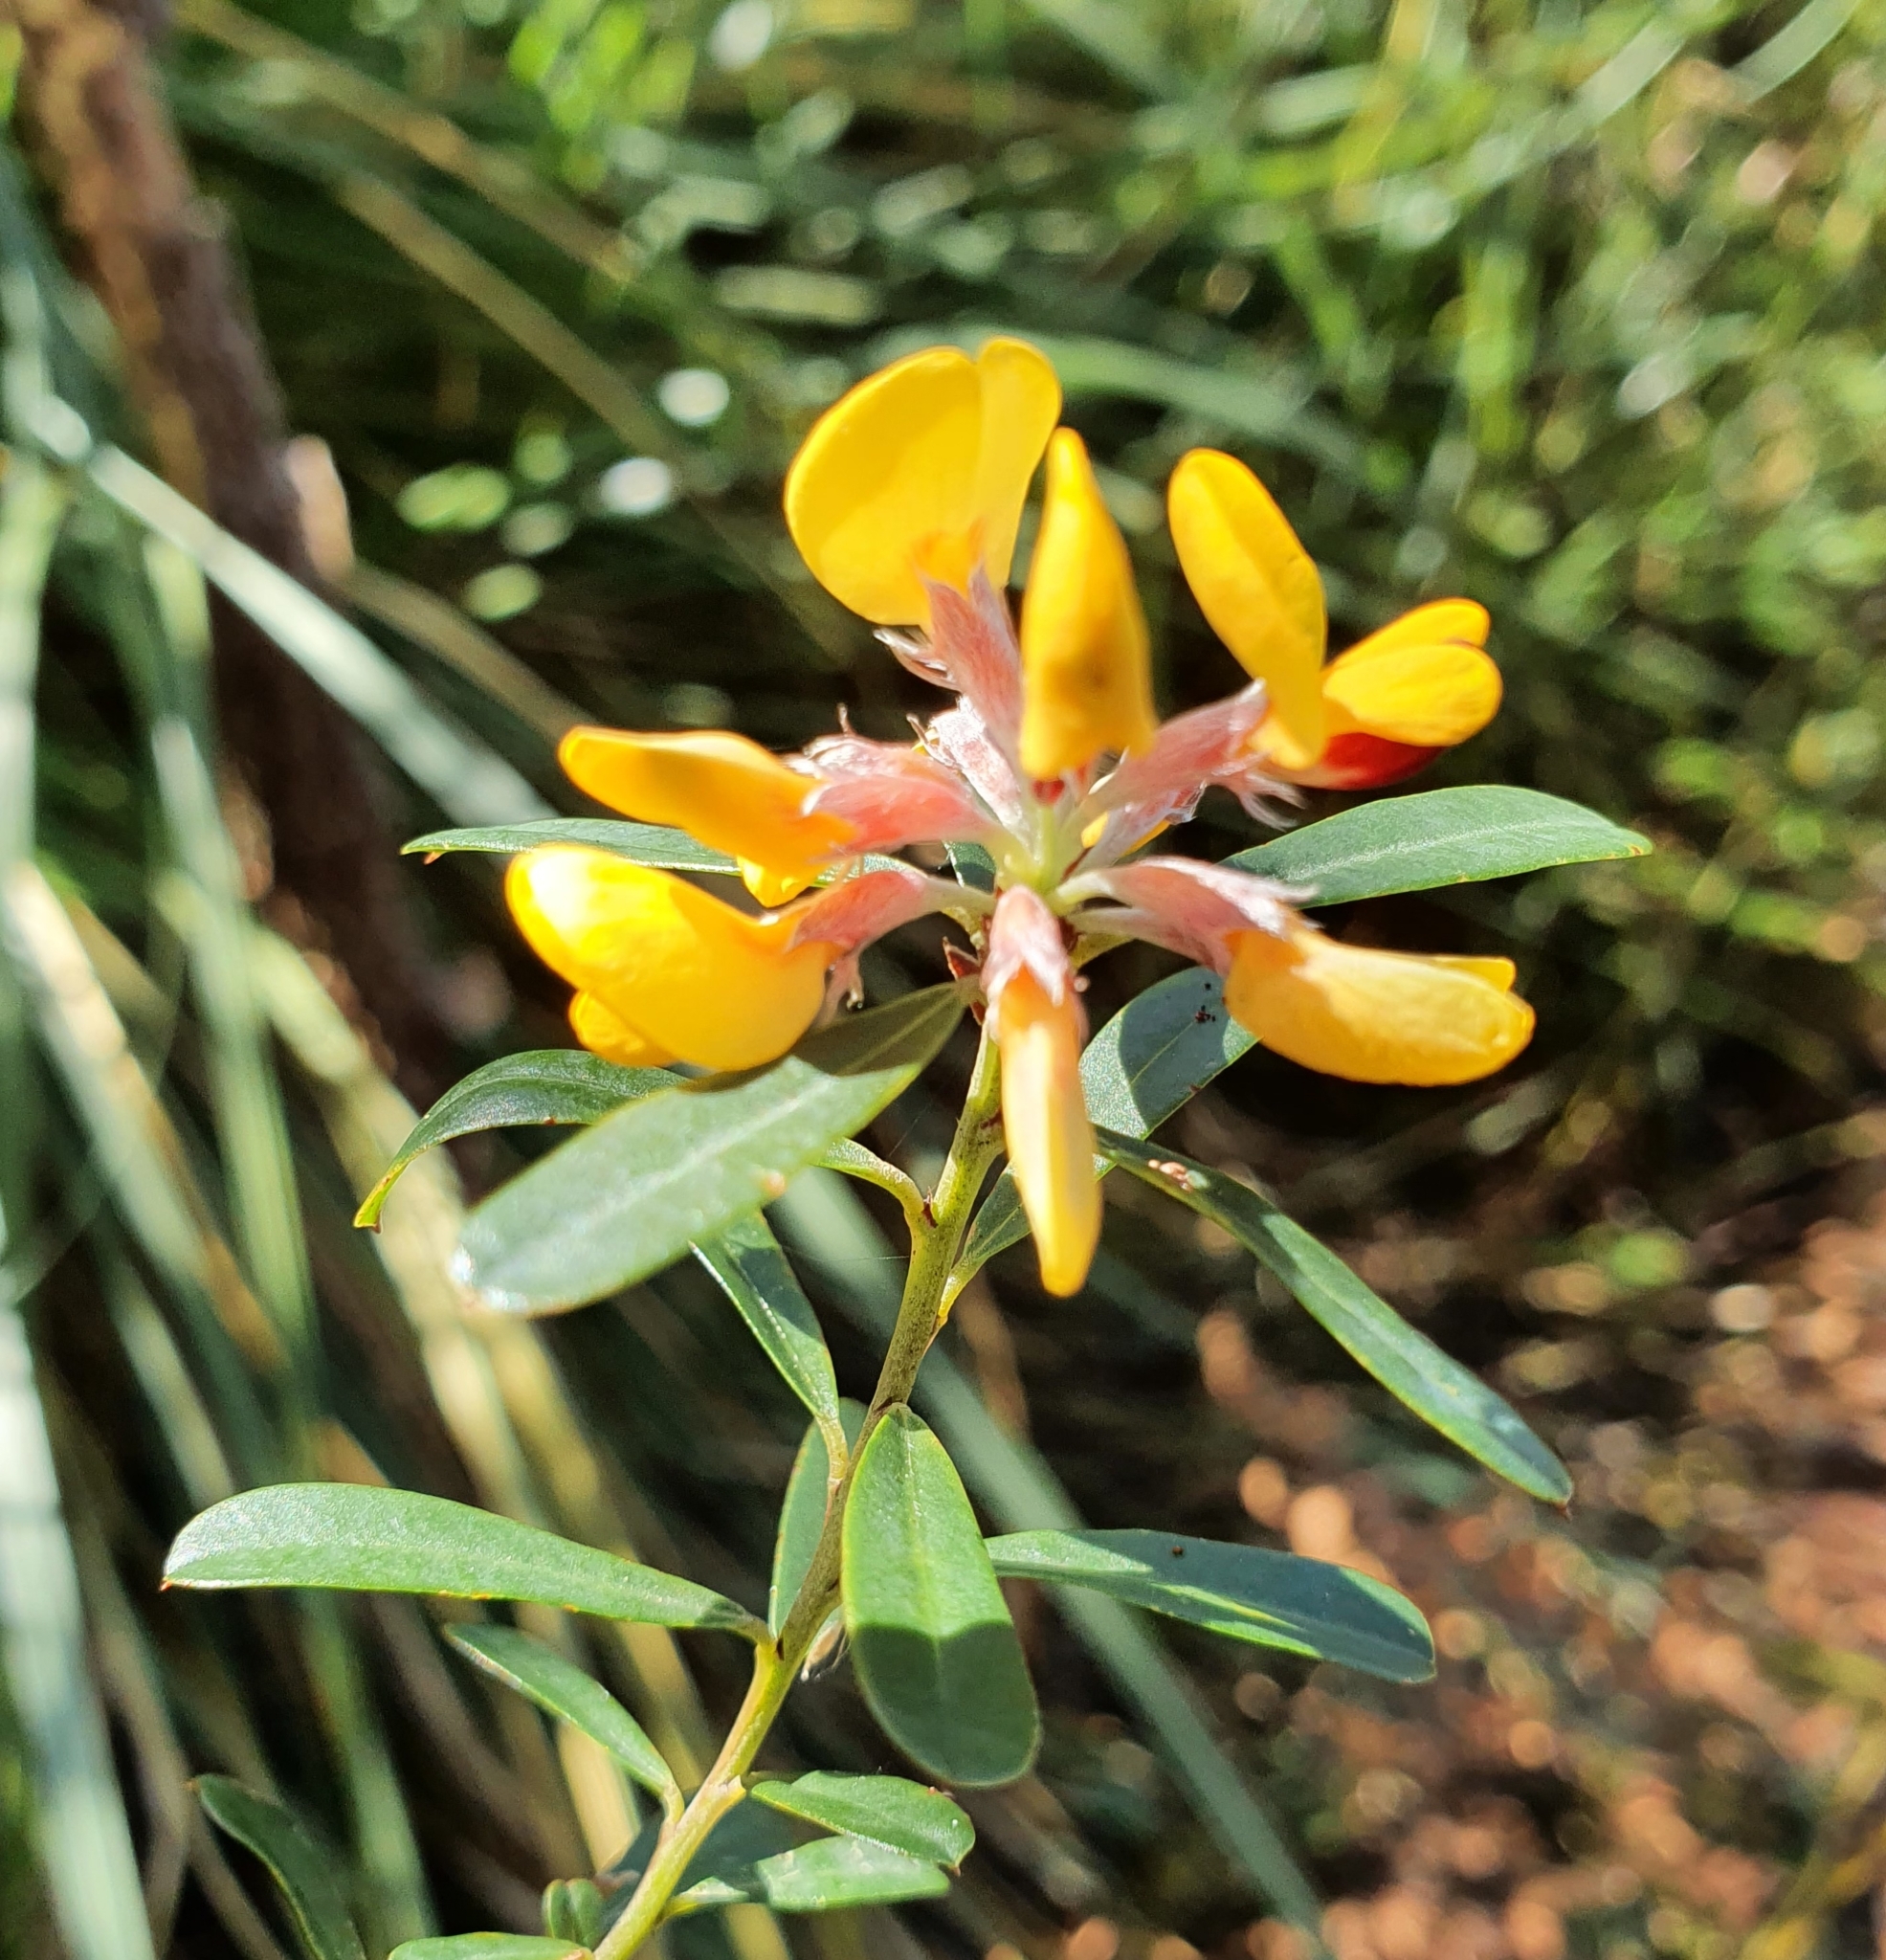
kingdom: Plantae
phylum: Tracheophyta
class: Magnoliopsida
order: Fabales
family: Fabaceae
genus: Pultenaea
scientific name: Pultenaea daphnoides
